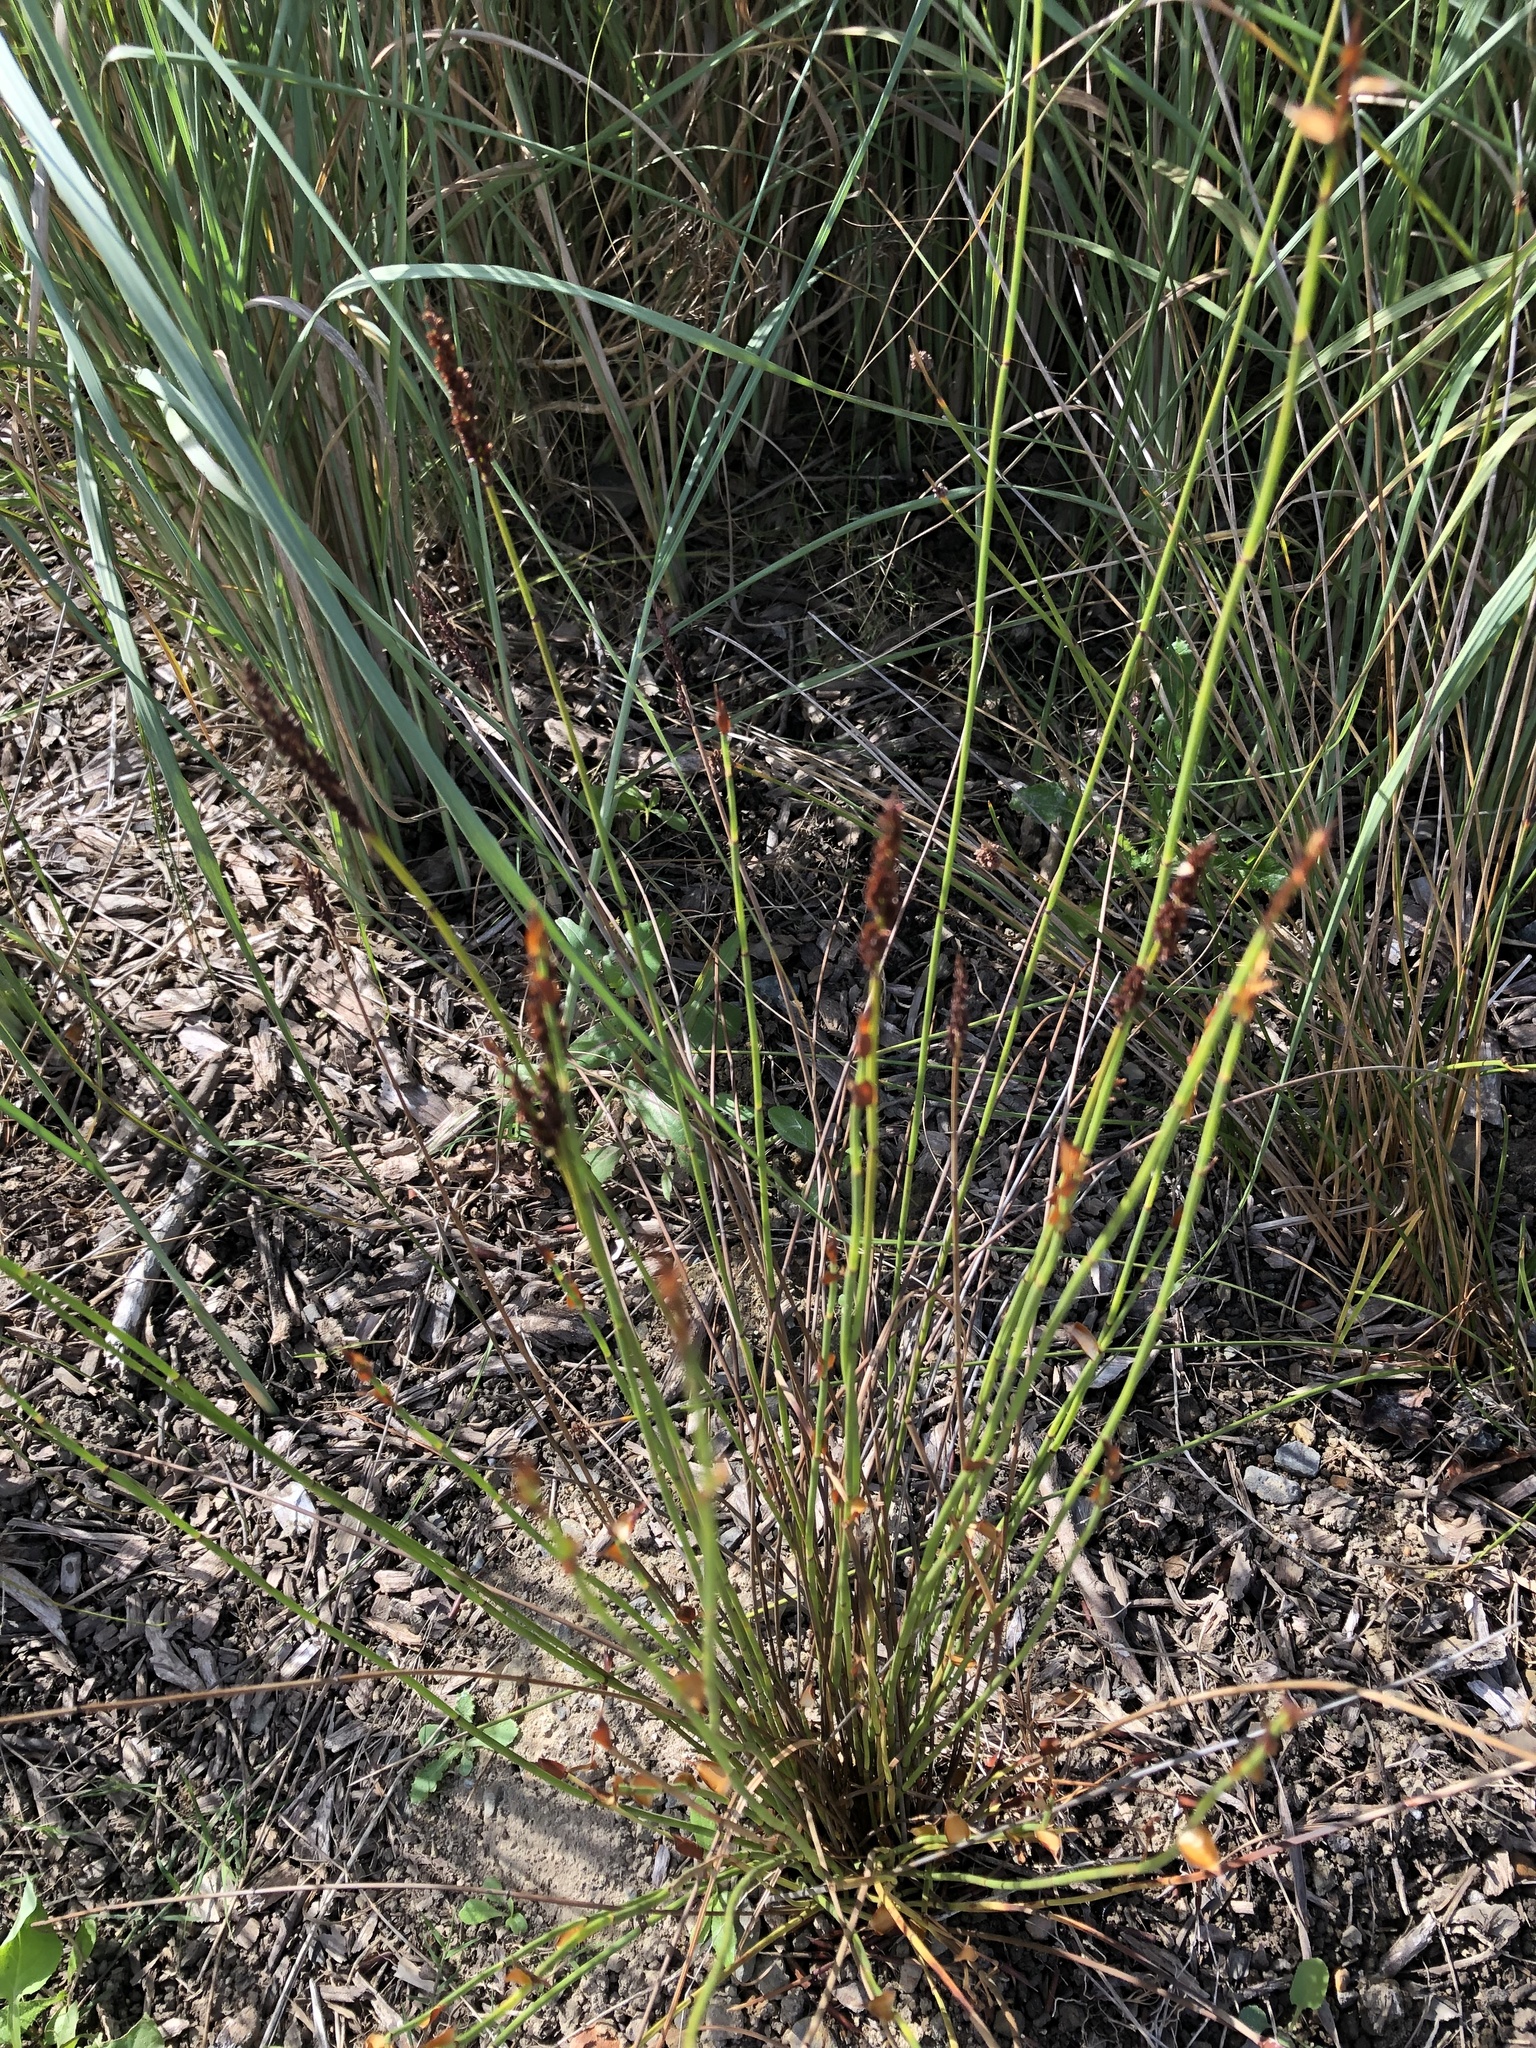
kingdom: Plantae
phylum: Tracheophyta
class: Liliopsida
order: Poales
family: Restionaceae
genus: Elegia
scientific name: Elegia ebracteata
